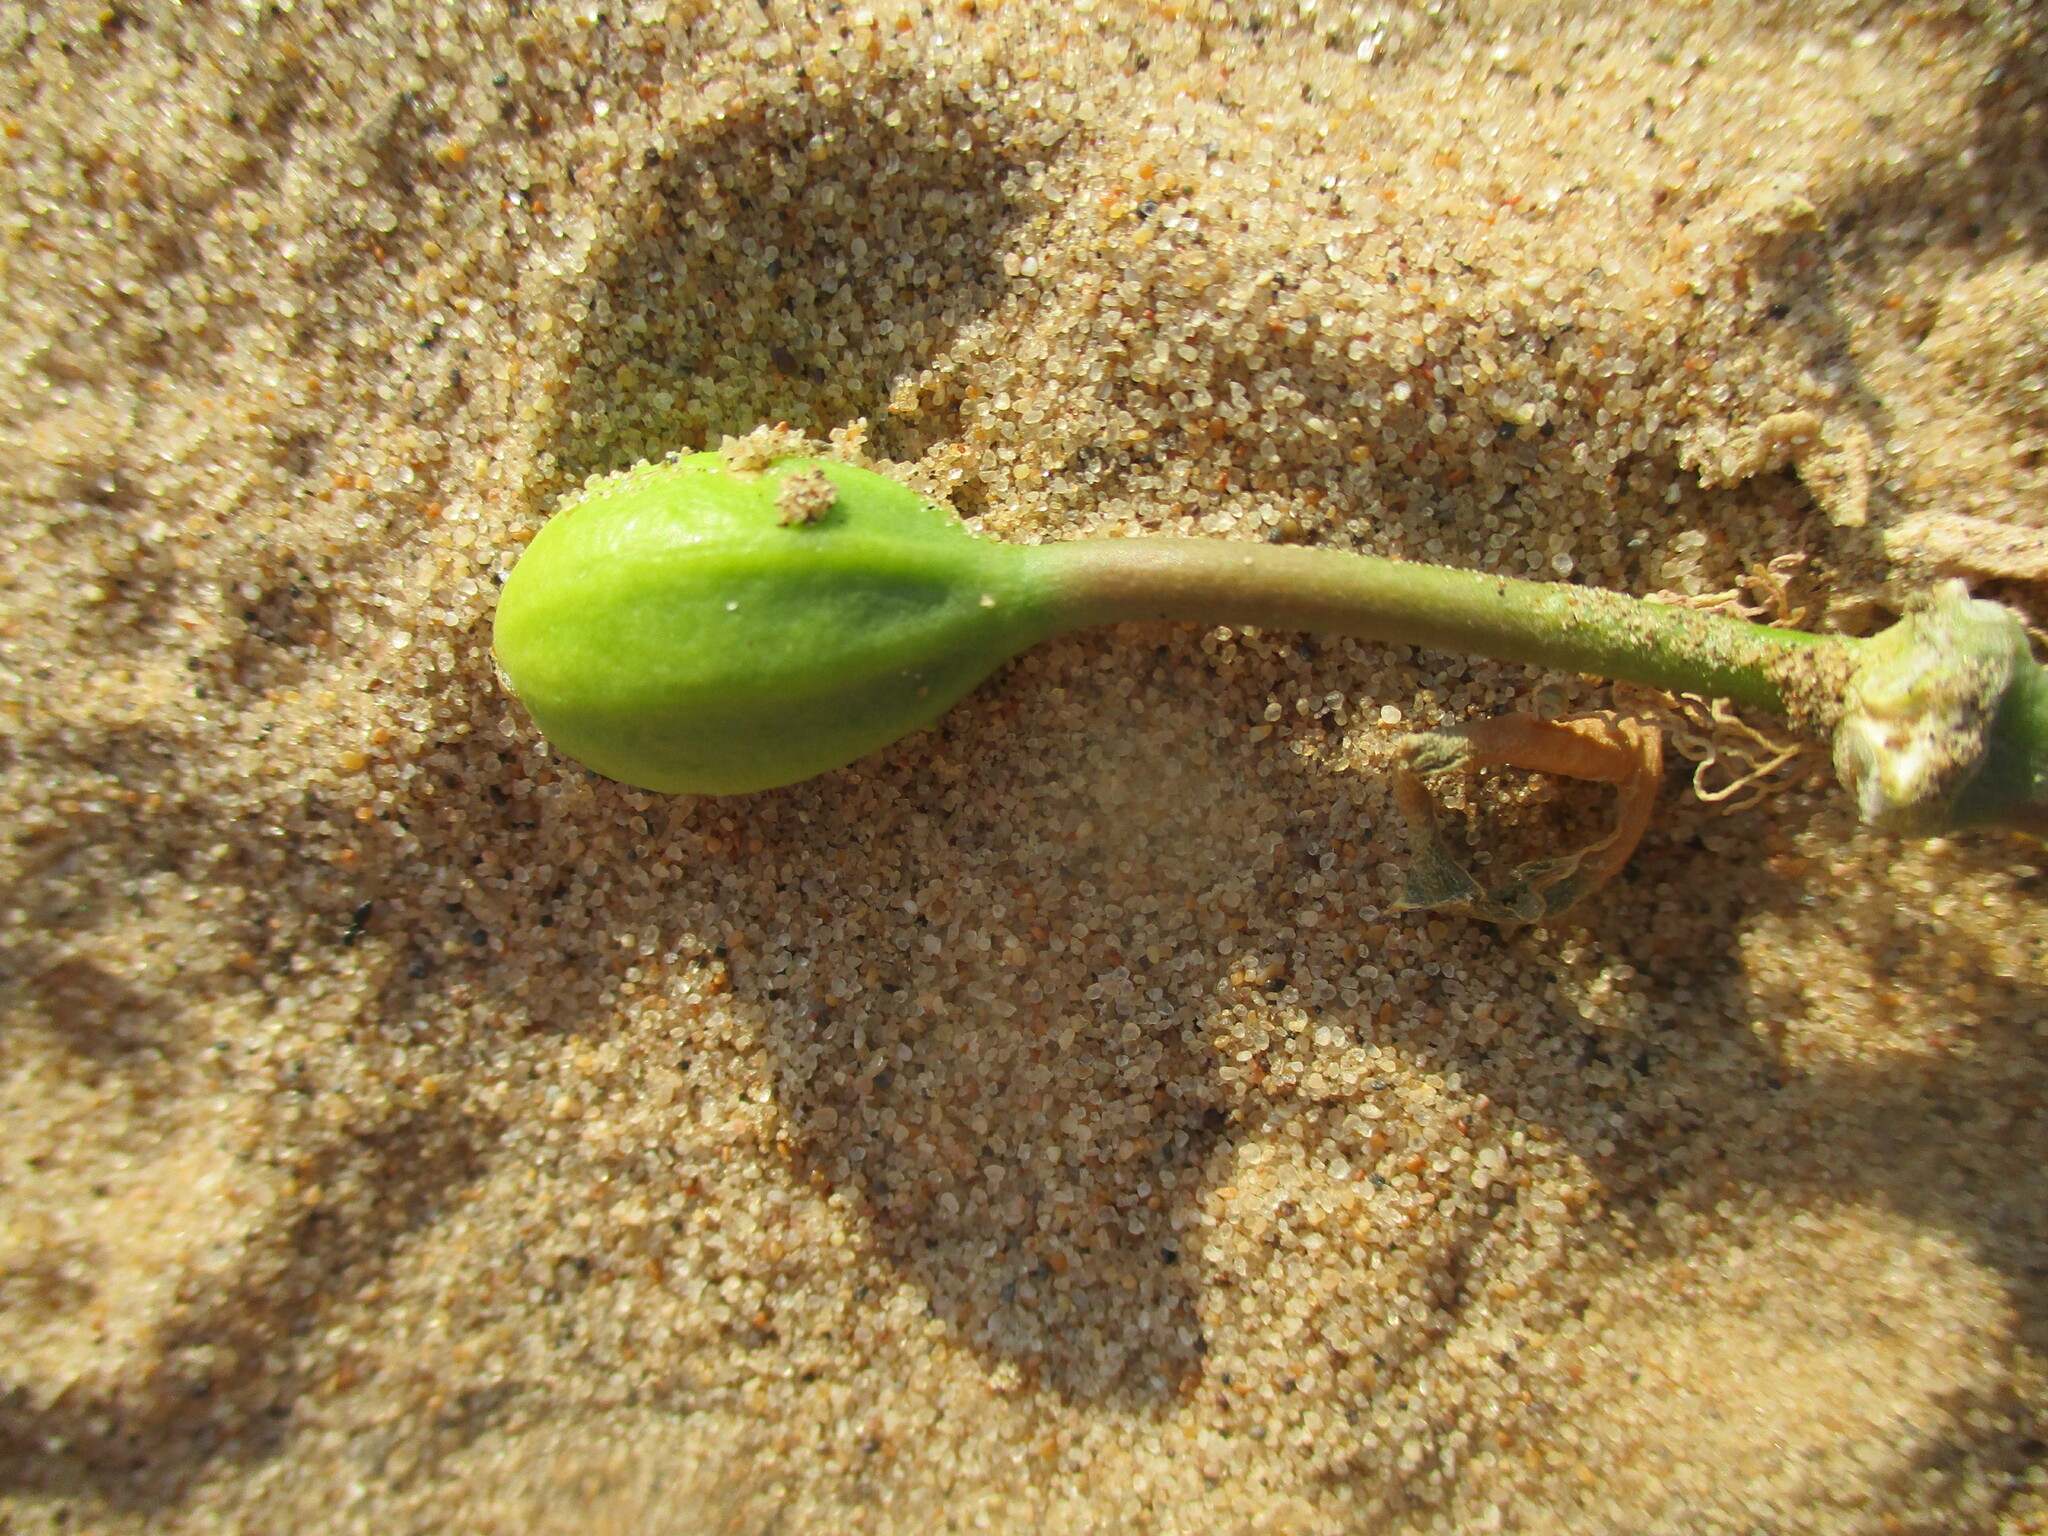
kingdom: Plantae
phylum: Tracheophyta
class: Magnoliopsida
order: Brassicales
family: Capparaceae
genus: Capparis
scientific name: Capparis hereroensis
